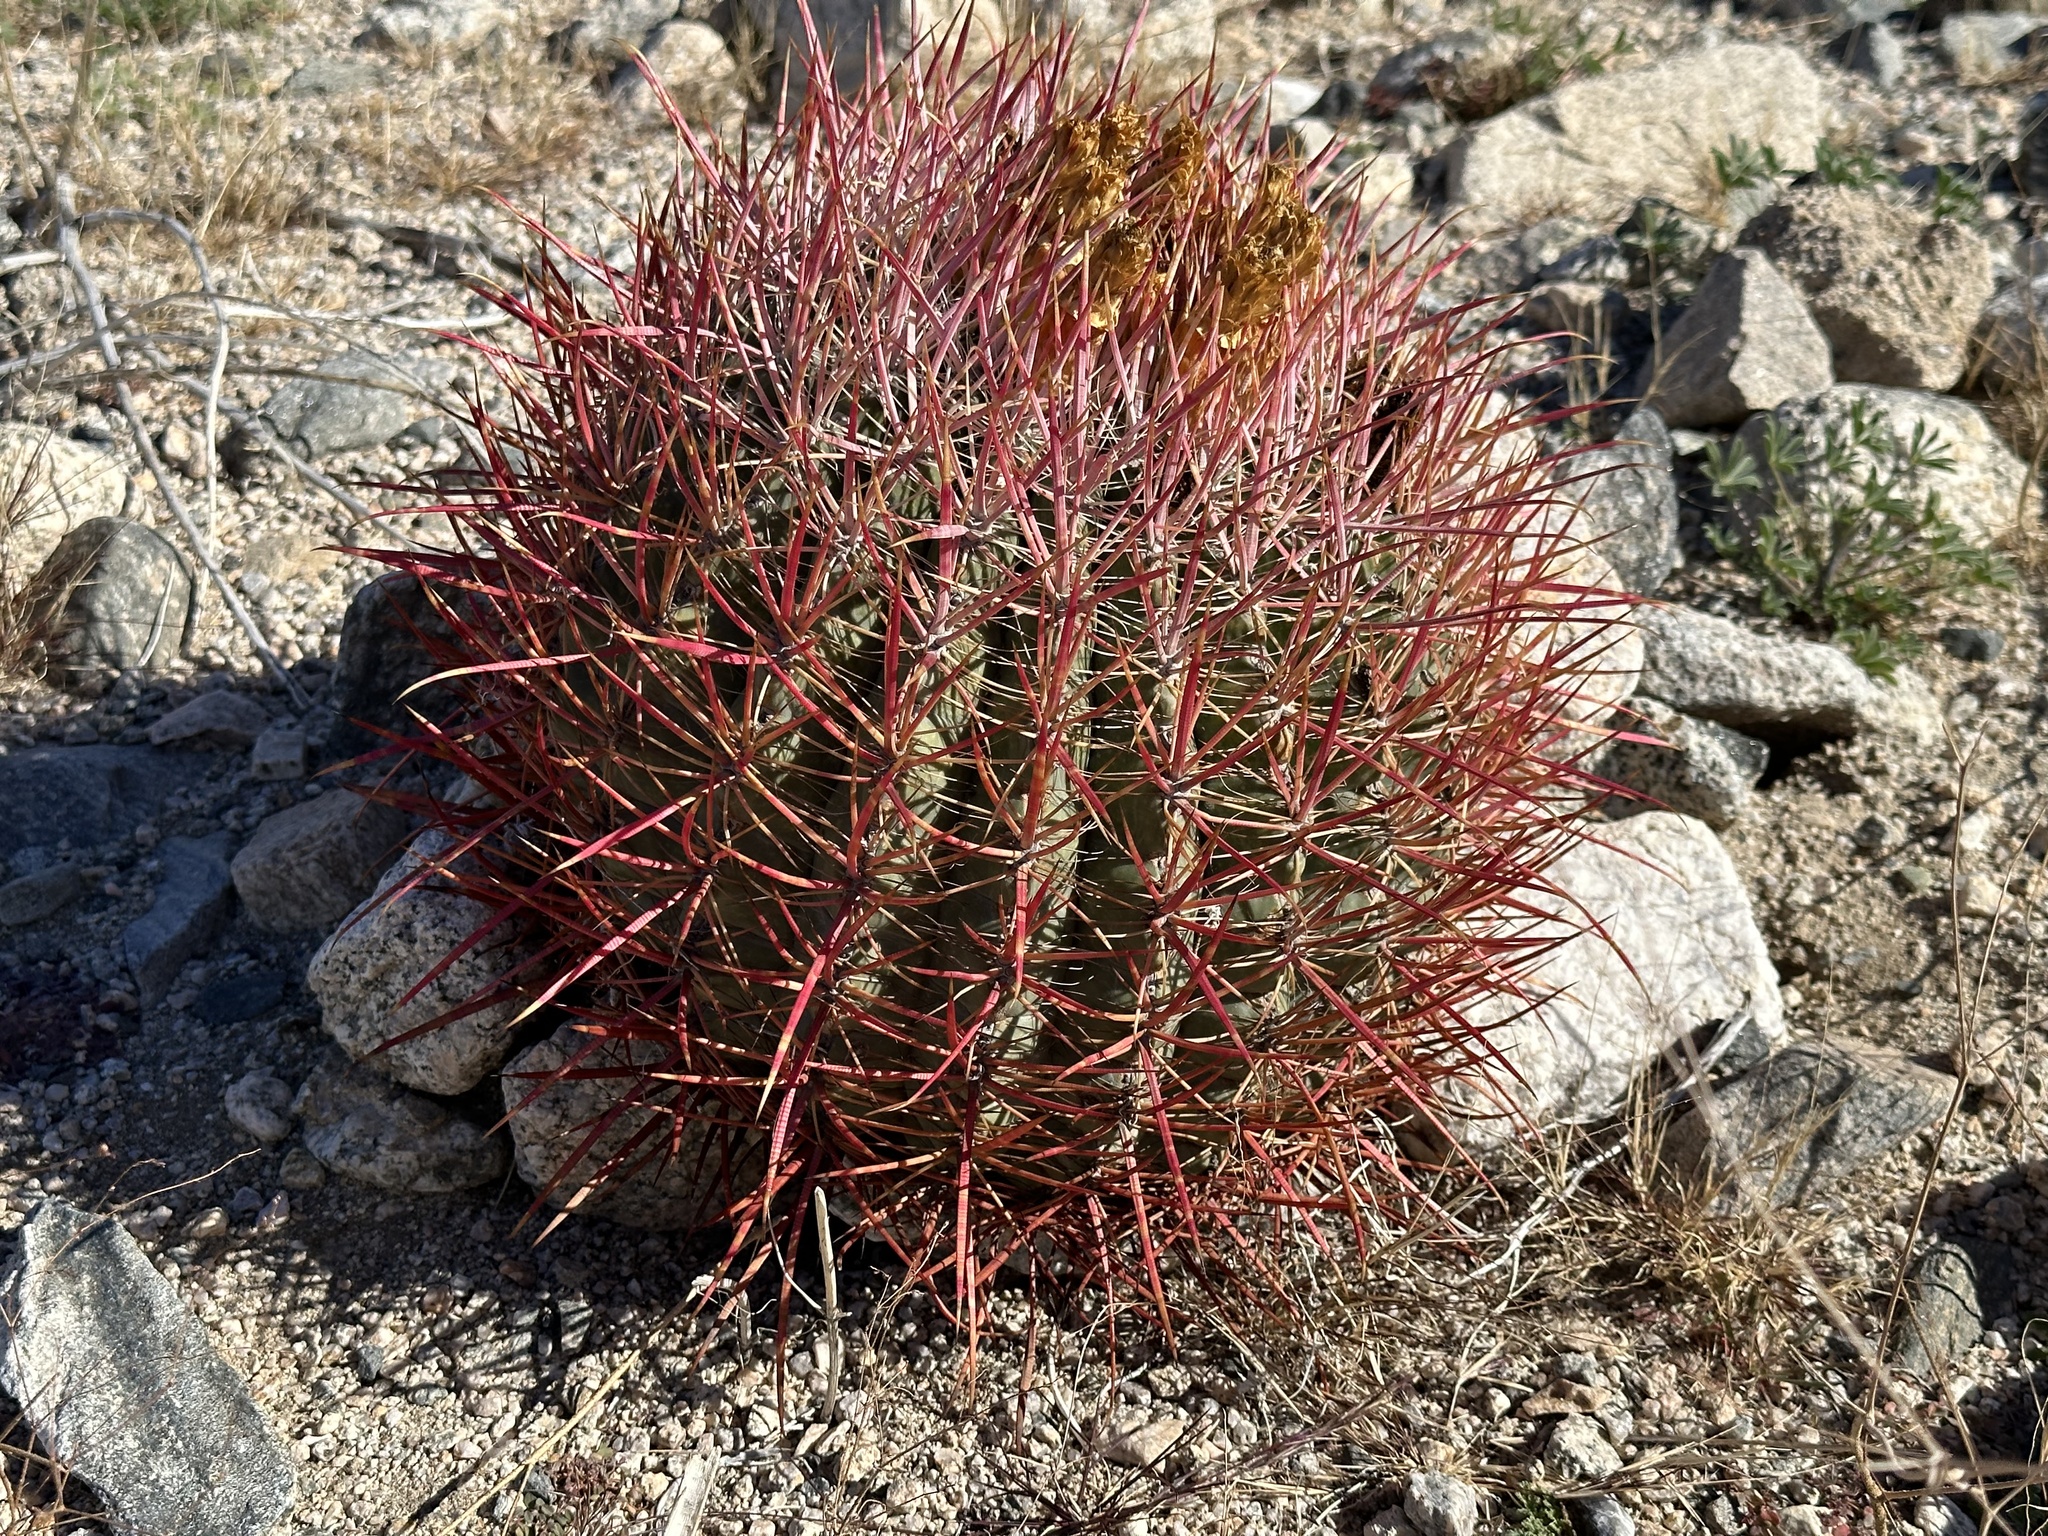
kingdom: Plantae
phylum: Tracheophyta
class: Magnoliopsida
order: Caryophyllales
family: Cactaceae
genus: Ferocactus
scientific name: Ferocactus cylindraceus
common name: California barrel cactus
